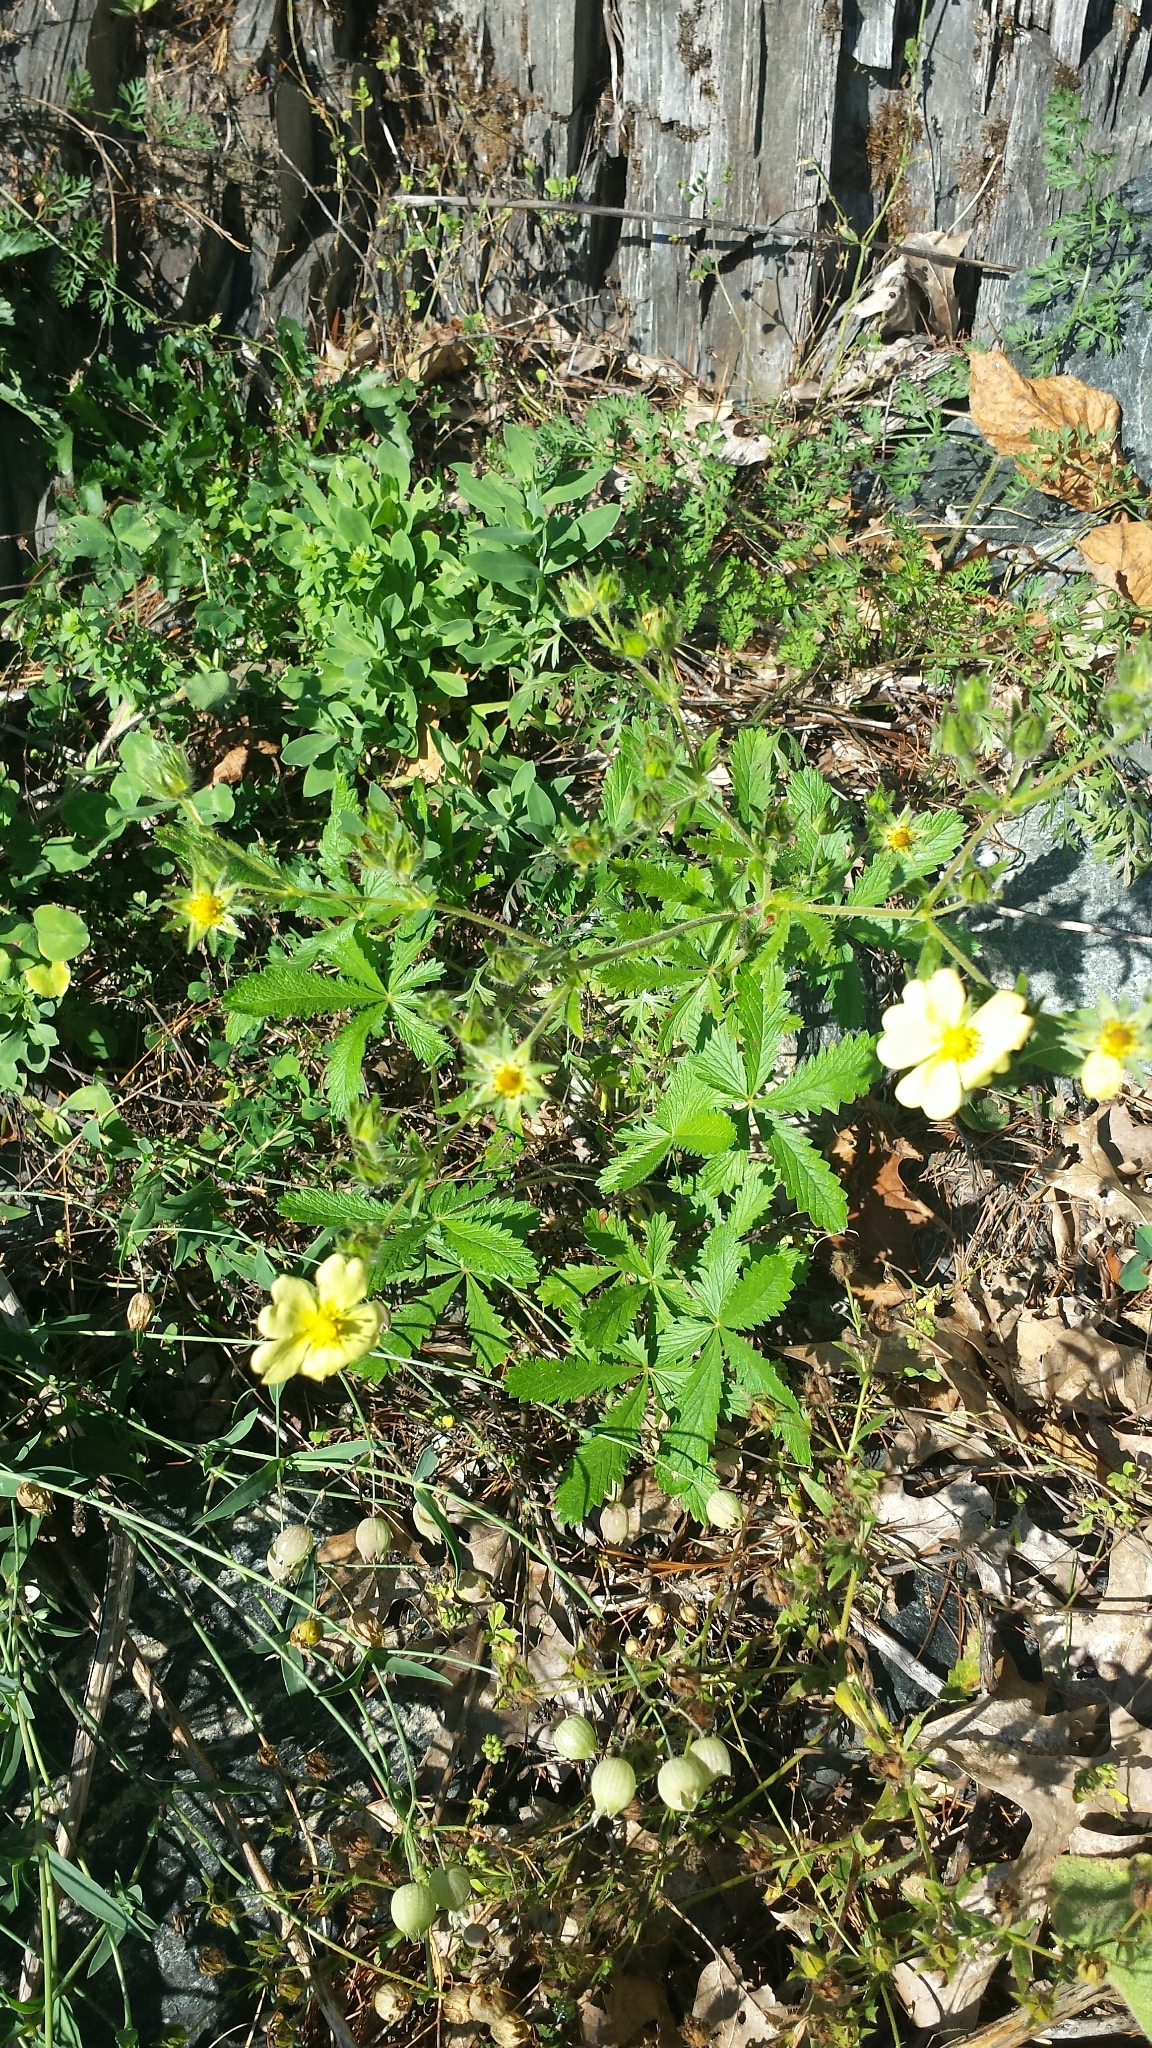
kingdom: Plantae
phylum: Tracheophyta
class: Magnoliopsida
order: Rosales
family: Rosaceae
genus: Potentilla
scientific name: Potentilla recta
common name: Sulphur cinquefoil
